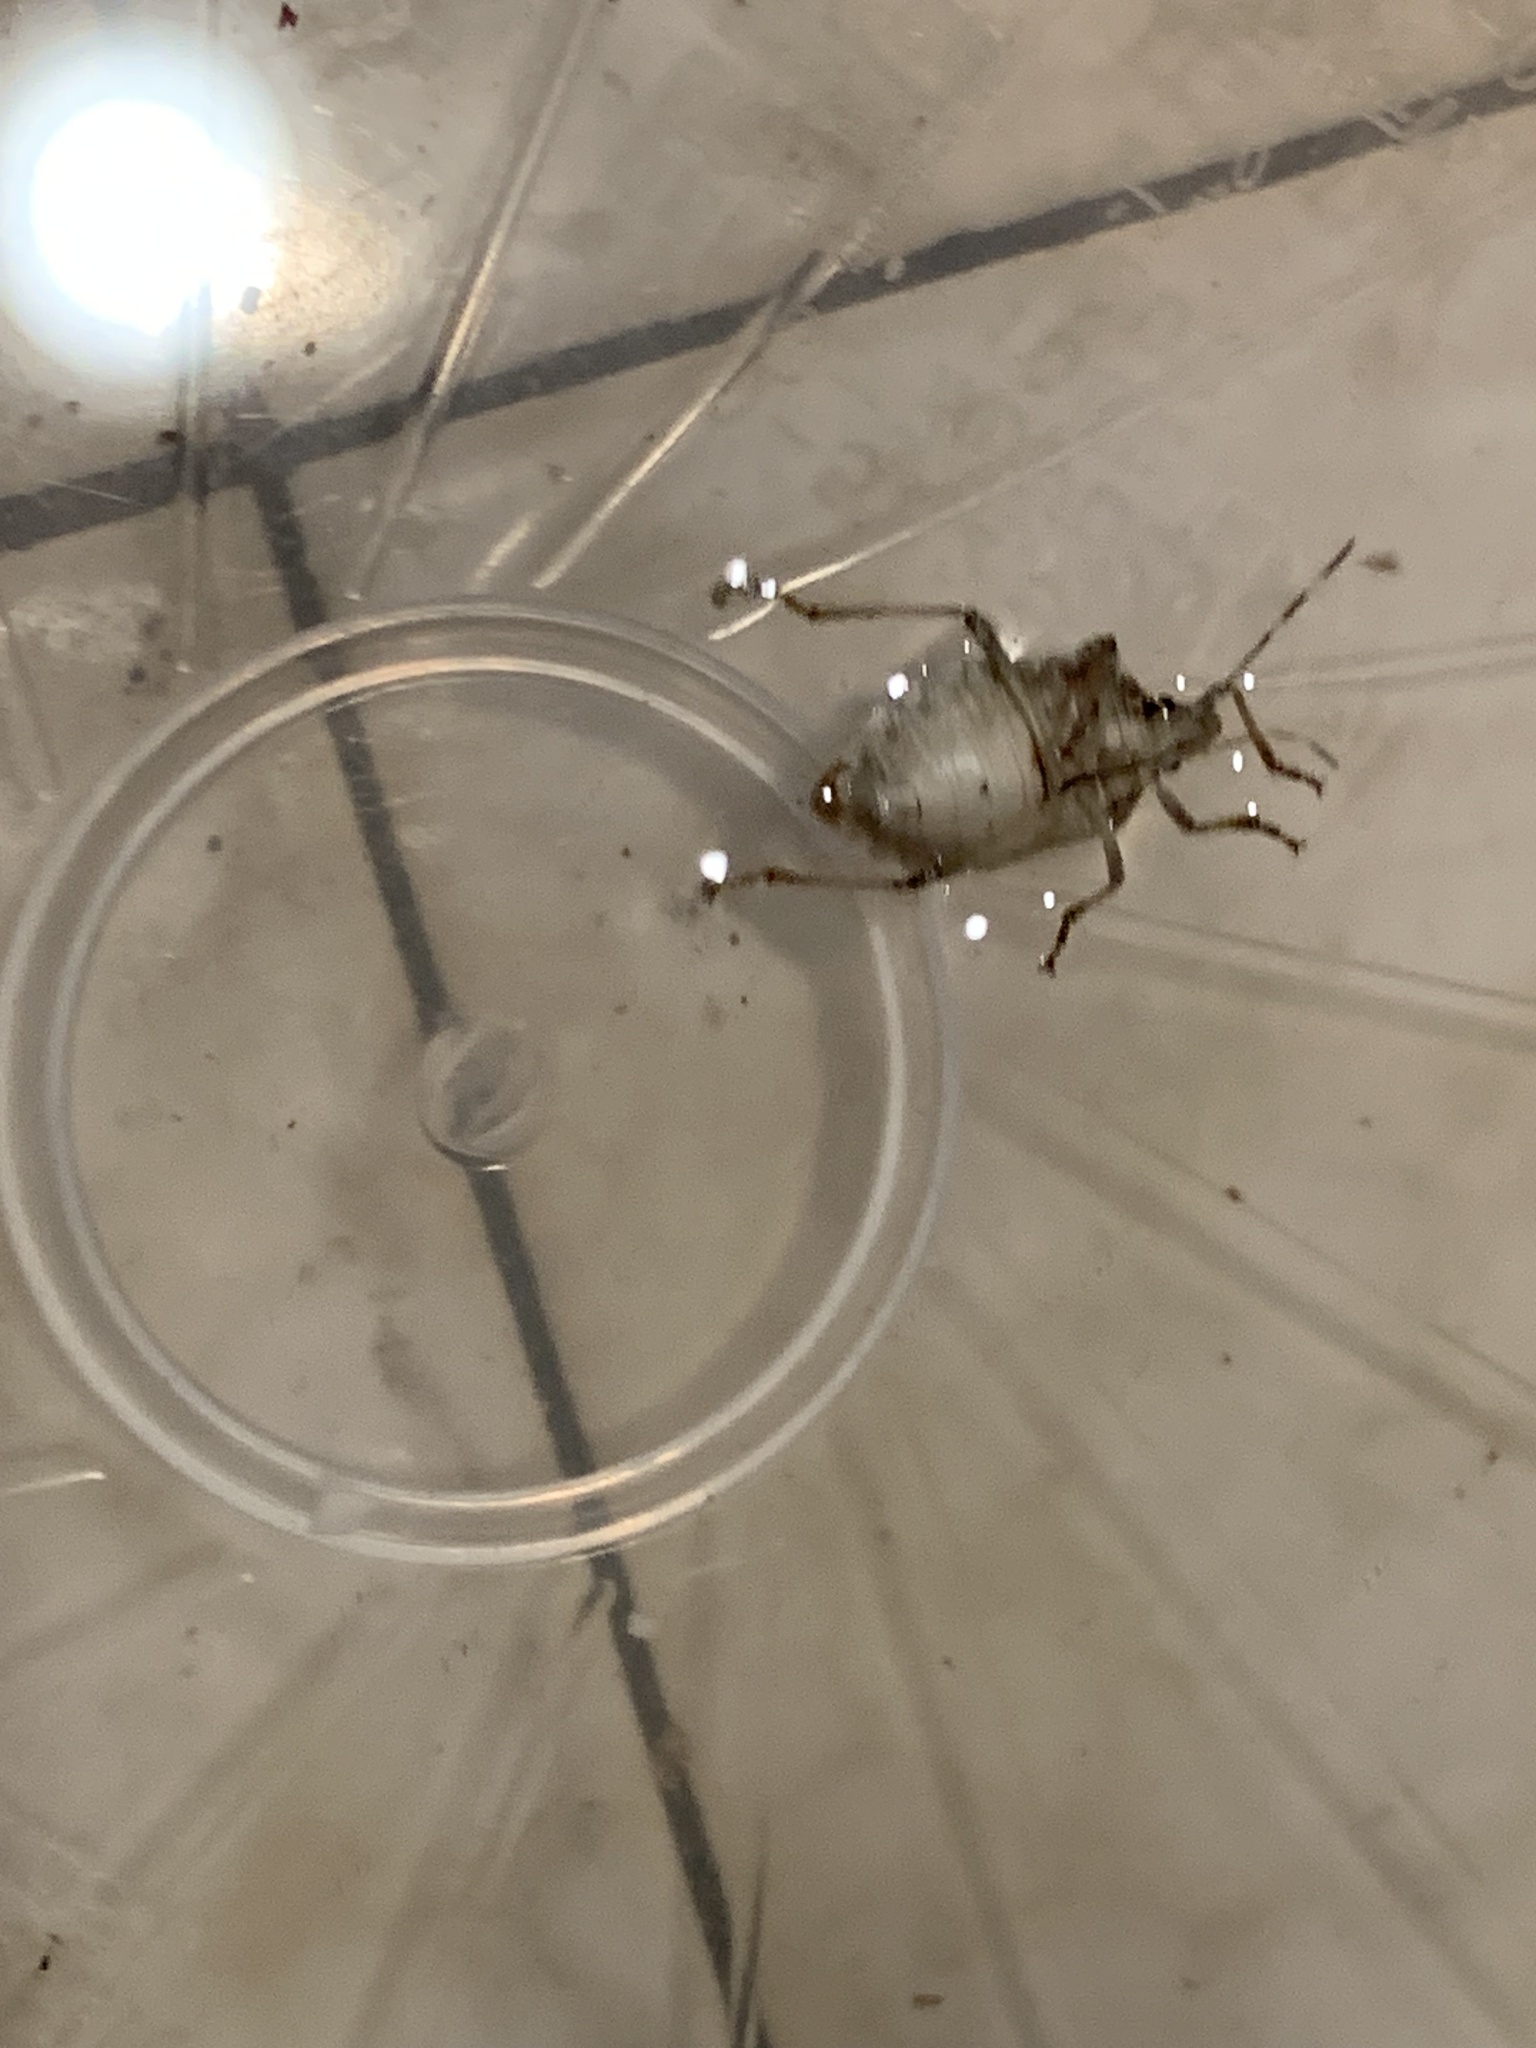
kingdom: Animalia
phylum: Arthropoda
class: Insecta
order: Hemiptera
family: Pentatomidae
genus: Halyomorpha
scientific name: Halyomorpha halys
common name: Brown marmorated stink bug
